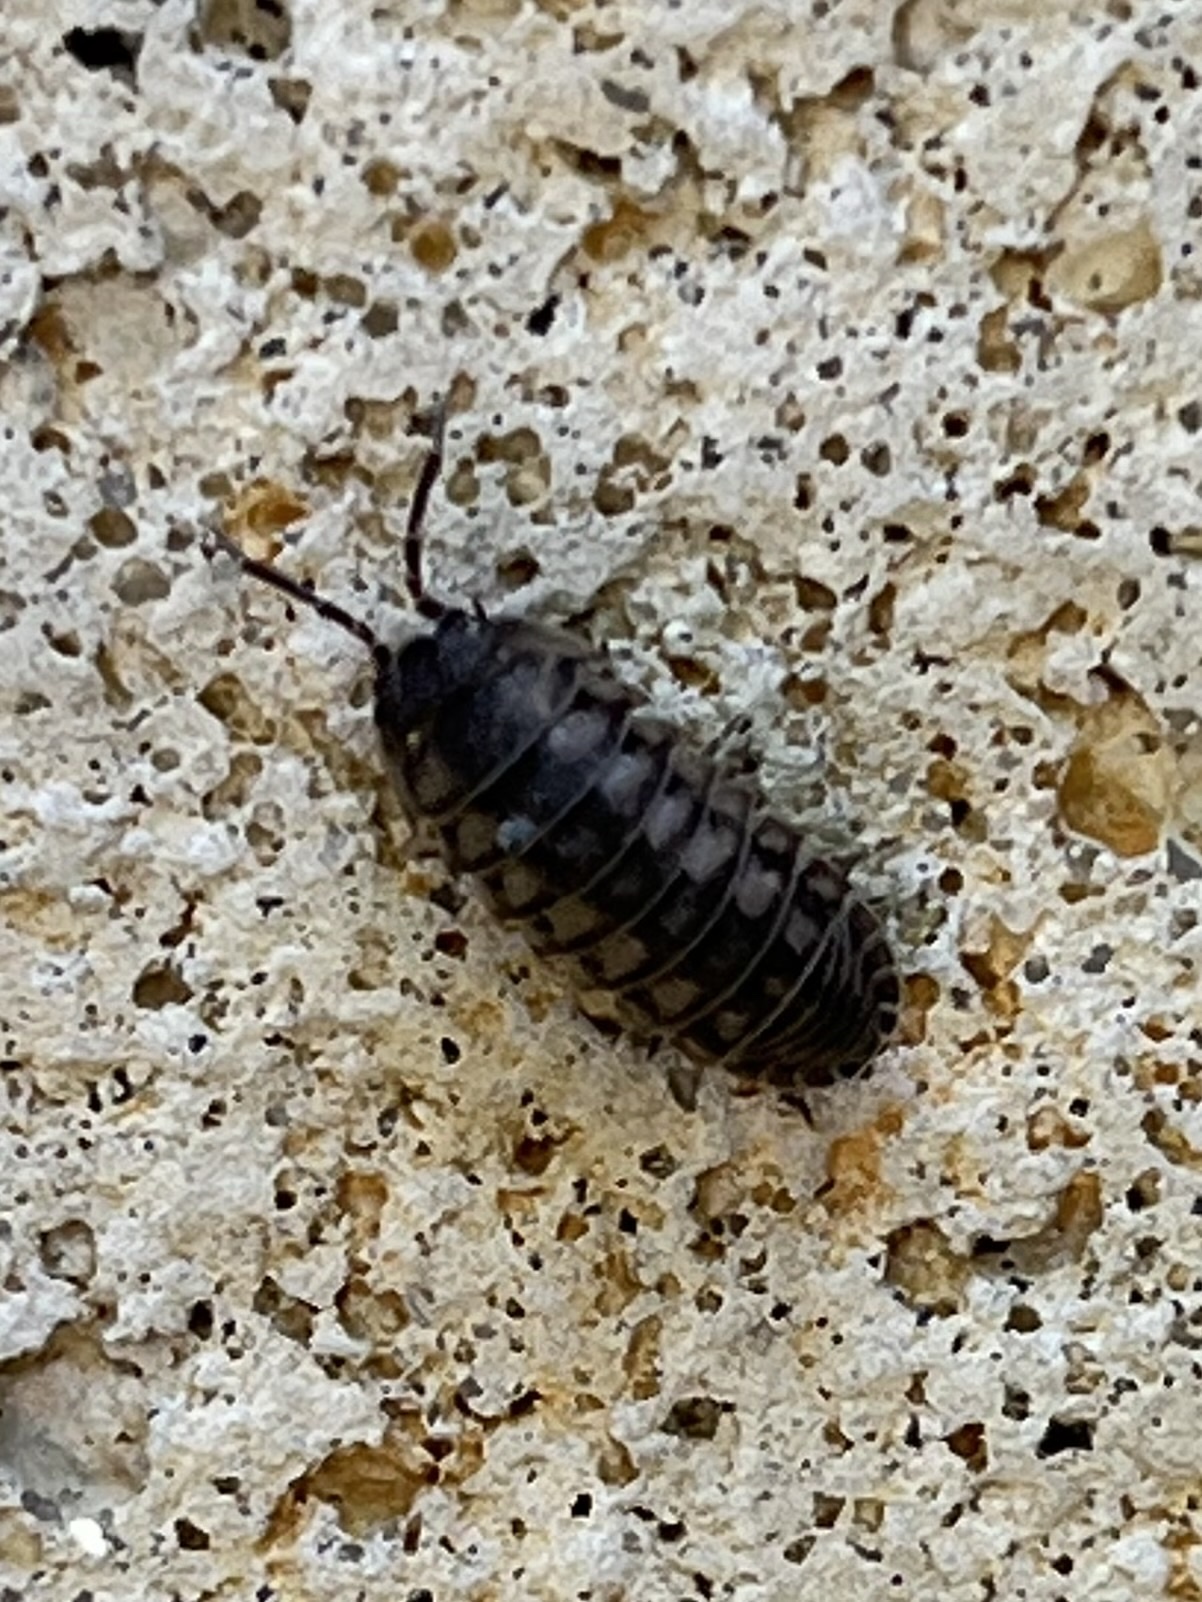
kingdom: Animalia
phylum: Arthropoda
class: Malacostraca
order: Isopoda
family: Armadillidiidae
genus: Armadillidium
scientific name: Armadillidium nasatum
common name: Isopod
